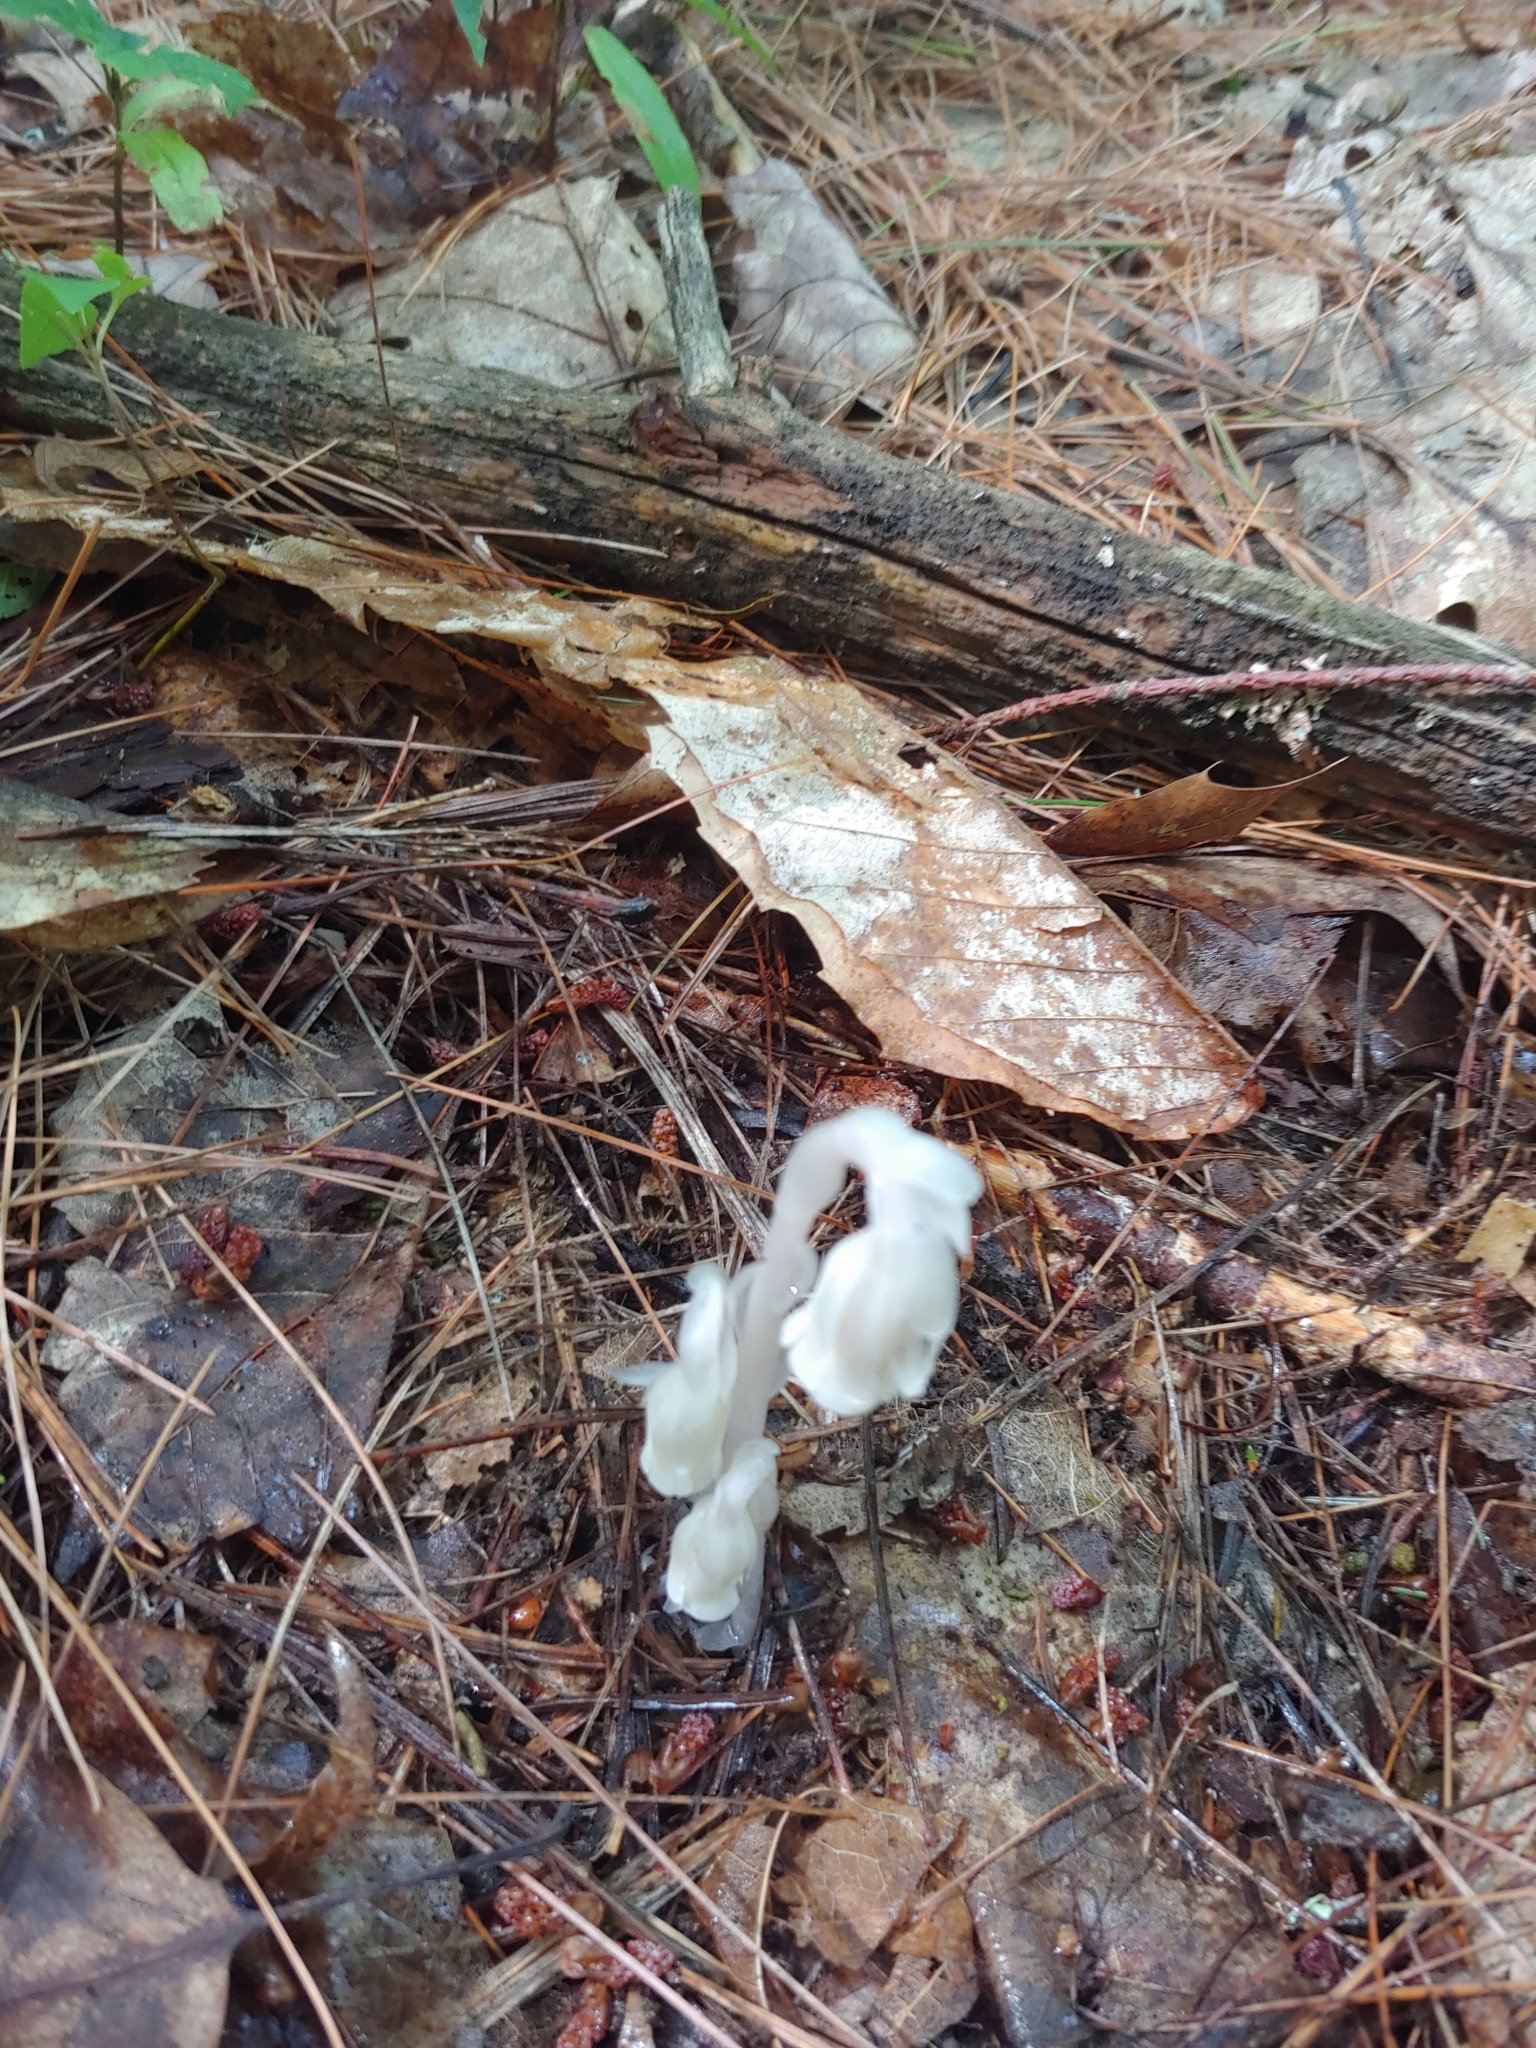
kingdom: Plantae
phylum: Tracheophyta
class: Magnoliopsida
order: Ericales
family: Ericaceae
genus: Monotropa
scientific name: Monotropa uniflora
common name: Convulsion root
